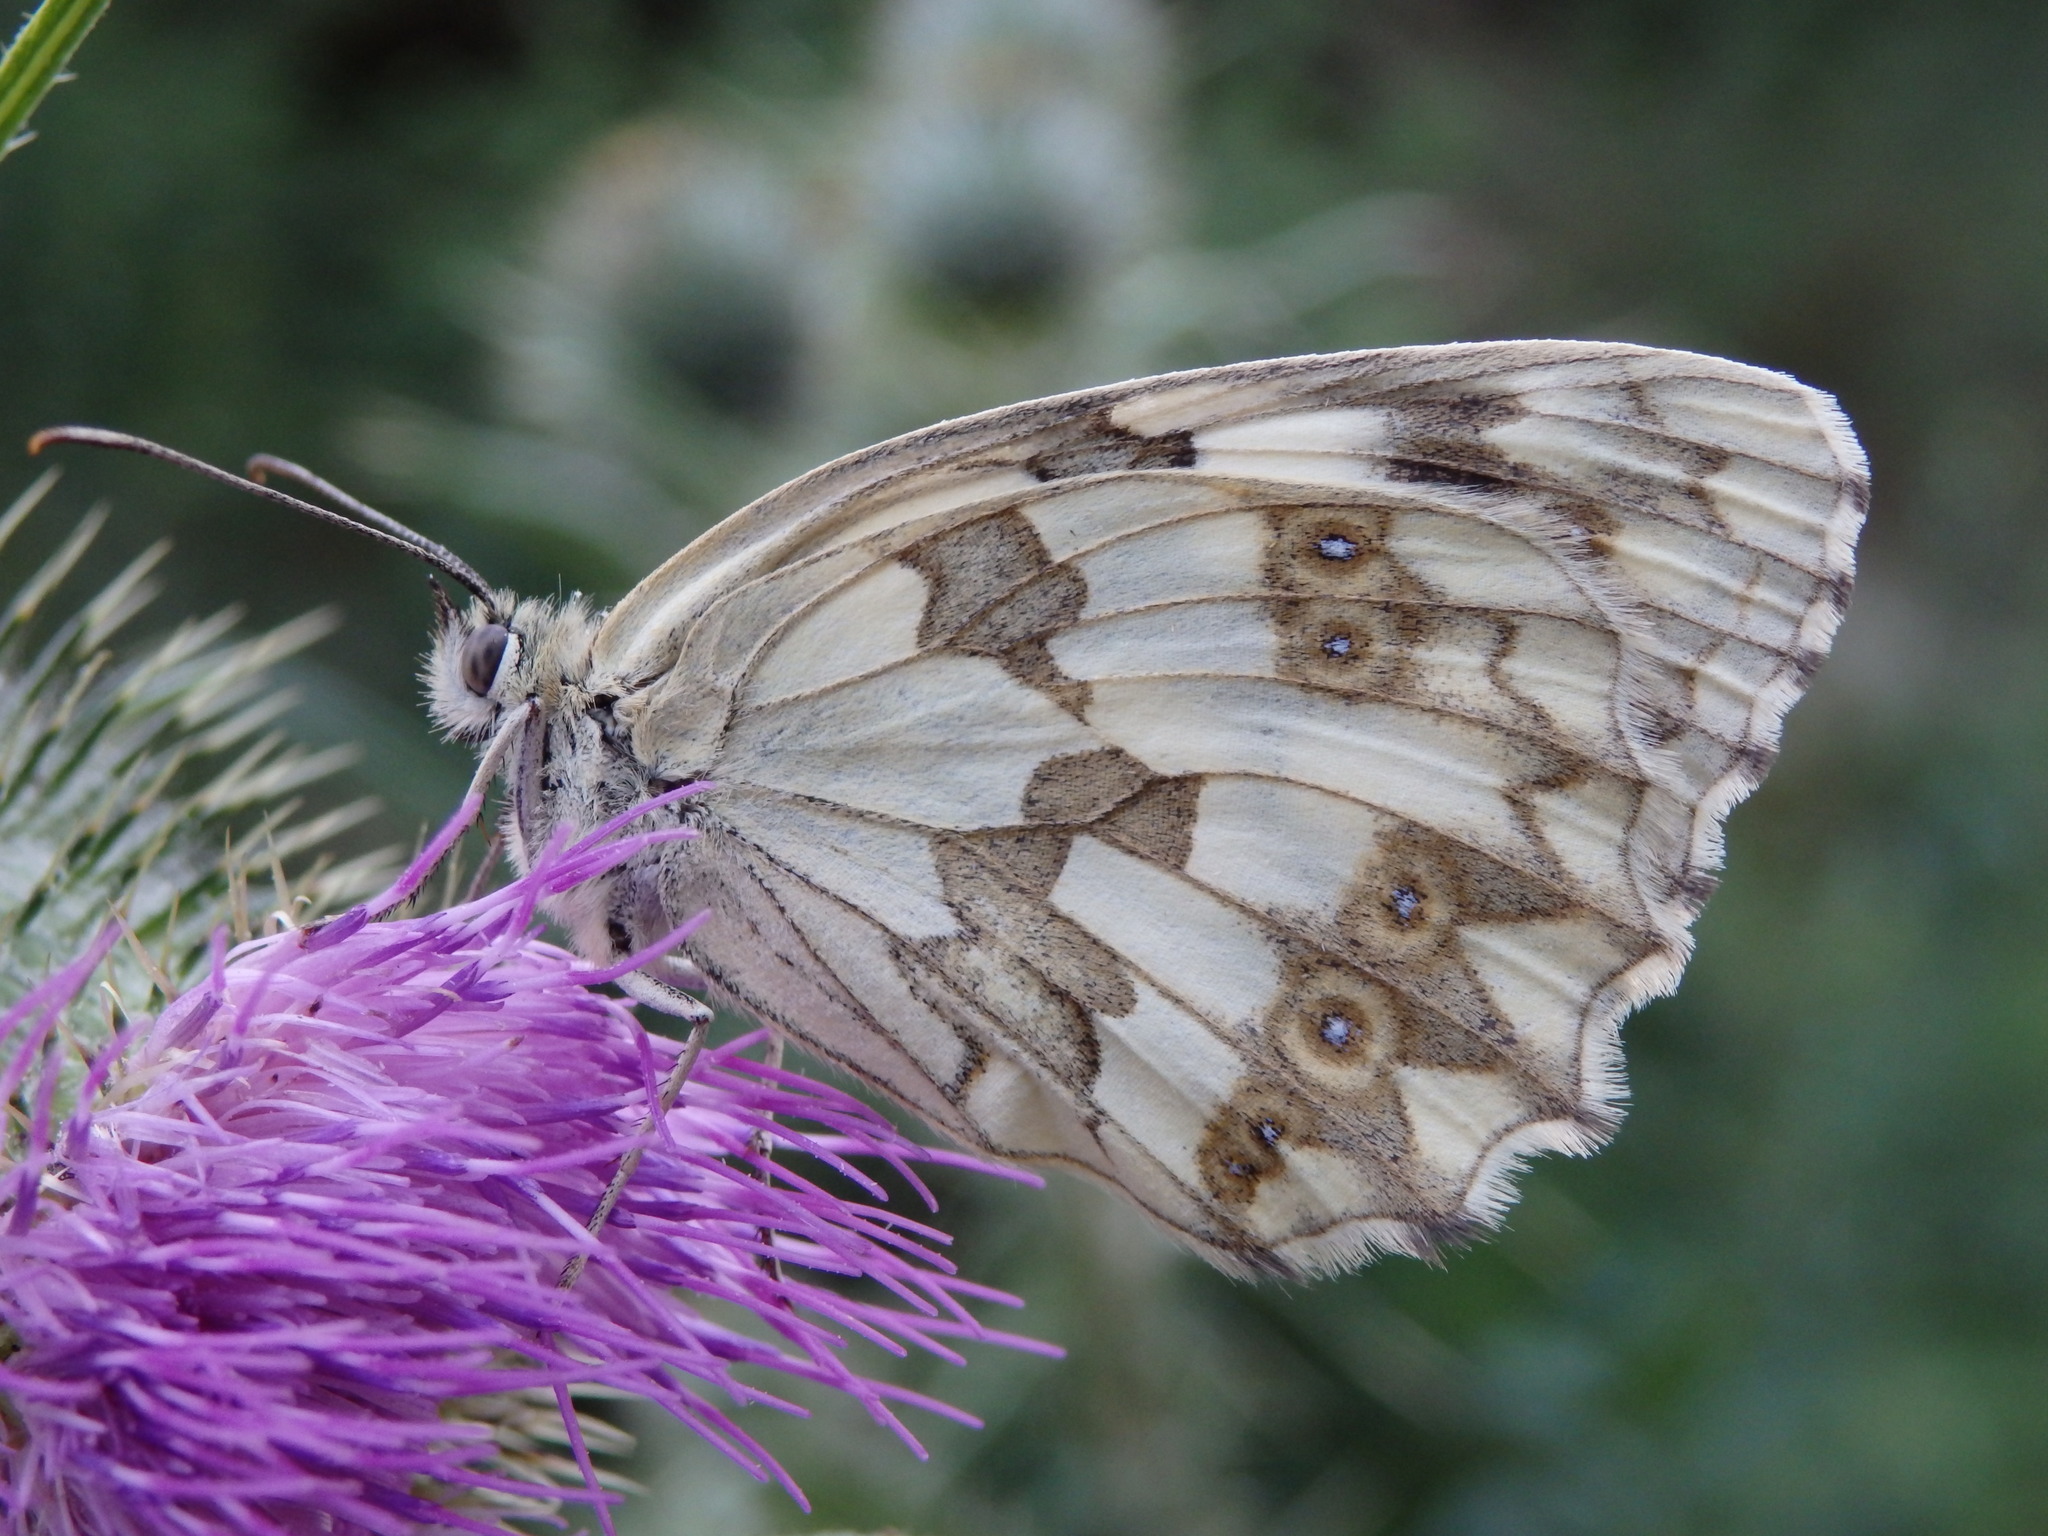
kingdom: Animalia
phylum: Arthropoda
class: Insecta
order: Lepidoptera
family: Nymphalidae
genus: Melanargia
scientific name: Melanargia lachesis
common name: Iberian marbled white
